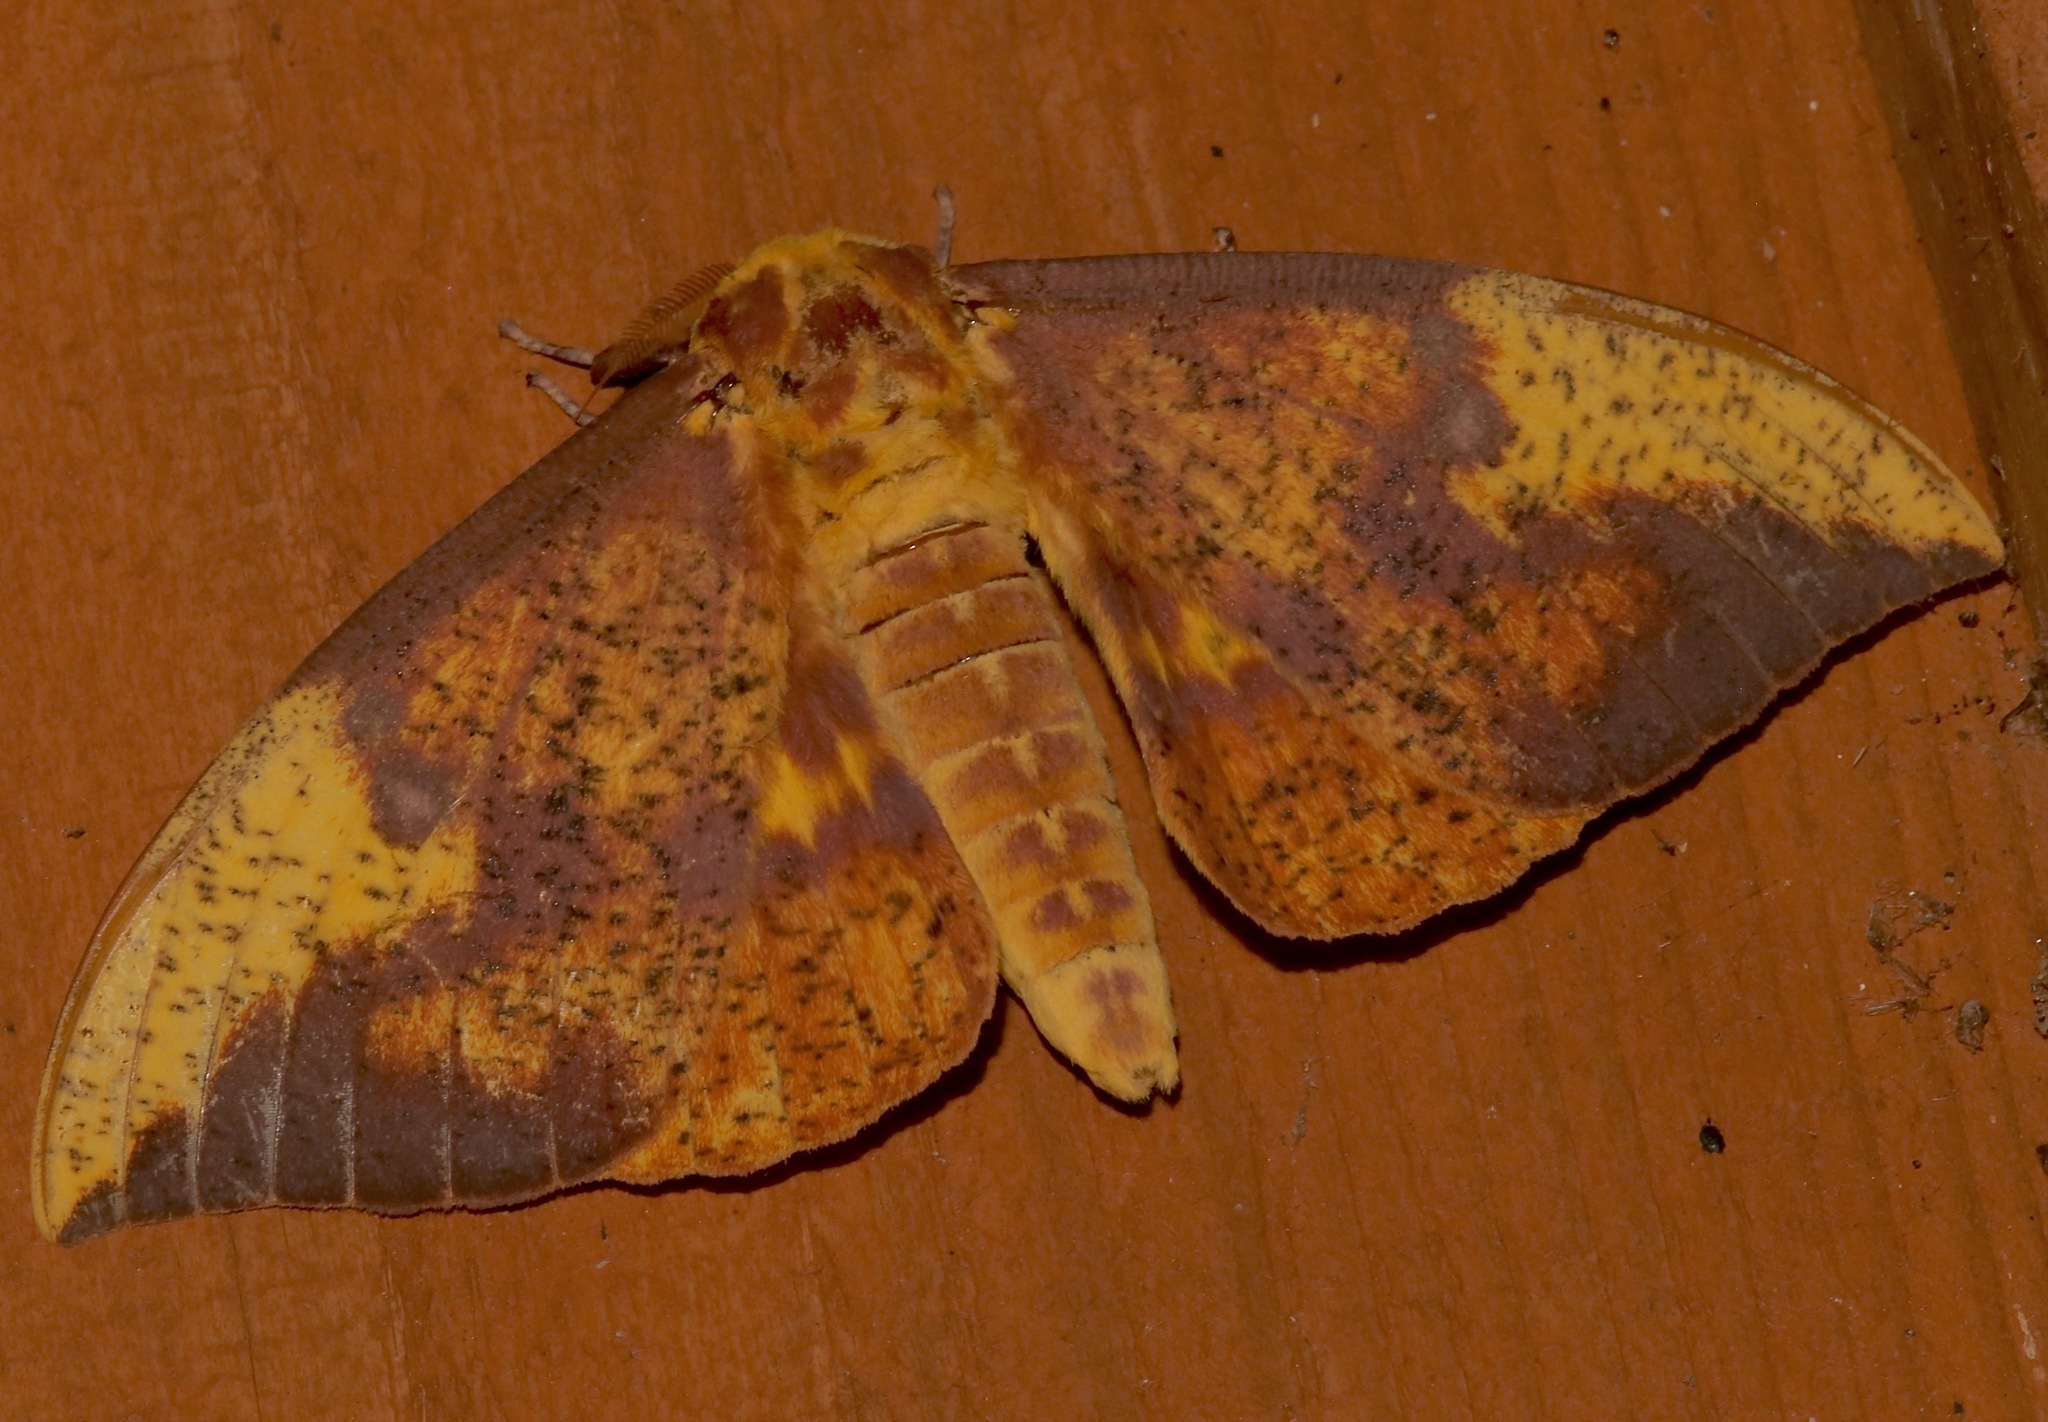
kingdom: Animalia
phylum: Arthropoda
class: Insecta
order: Lepidoptera
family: Saturniidae
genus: Eacles
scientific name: Eacles imperialis
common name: Imperial moth
